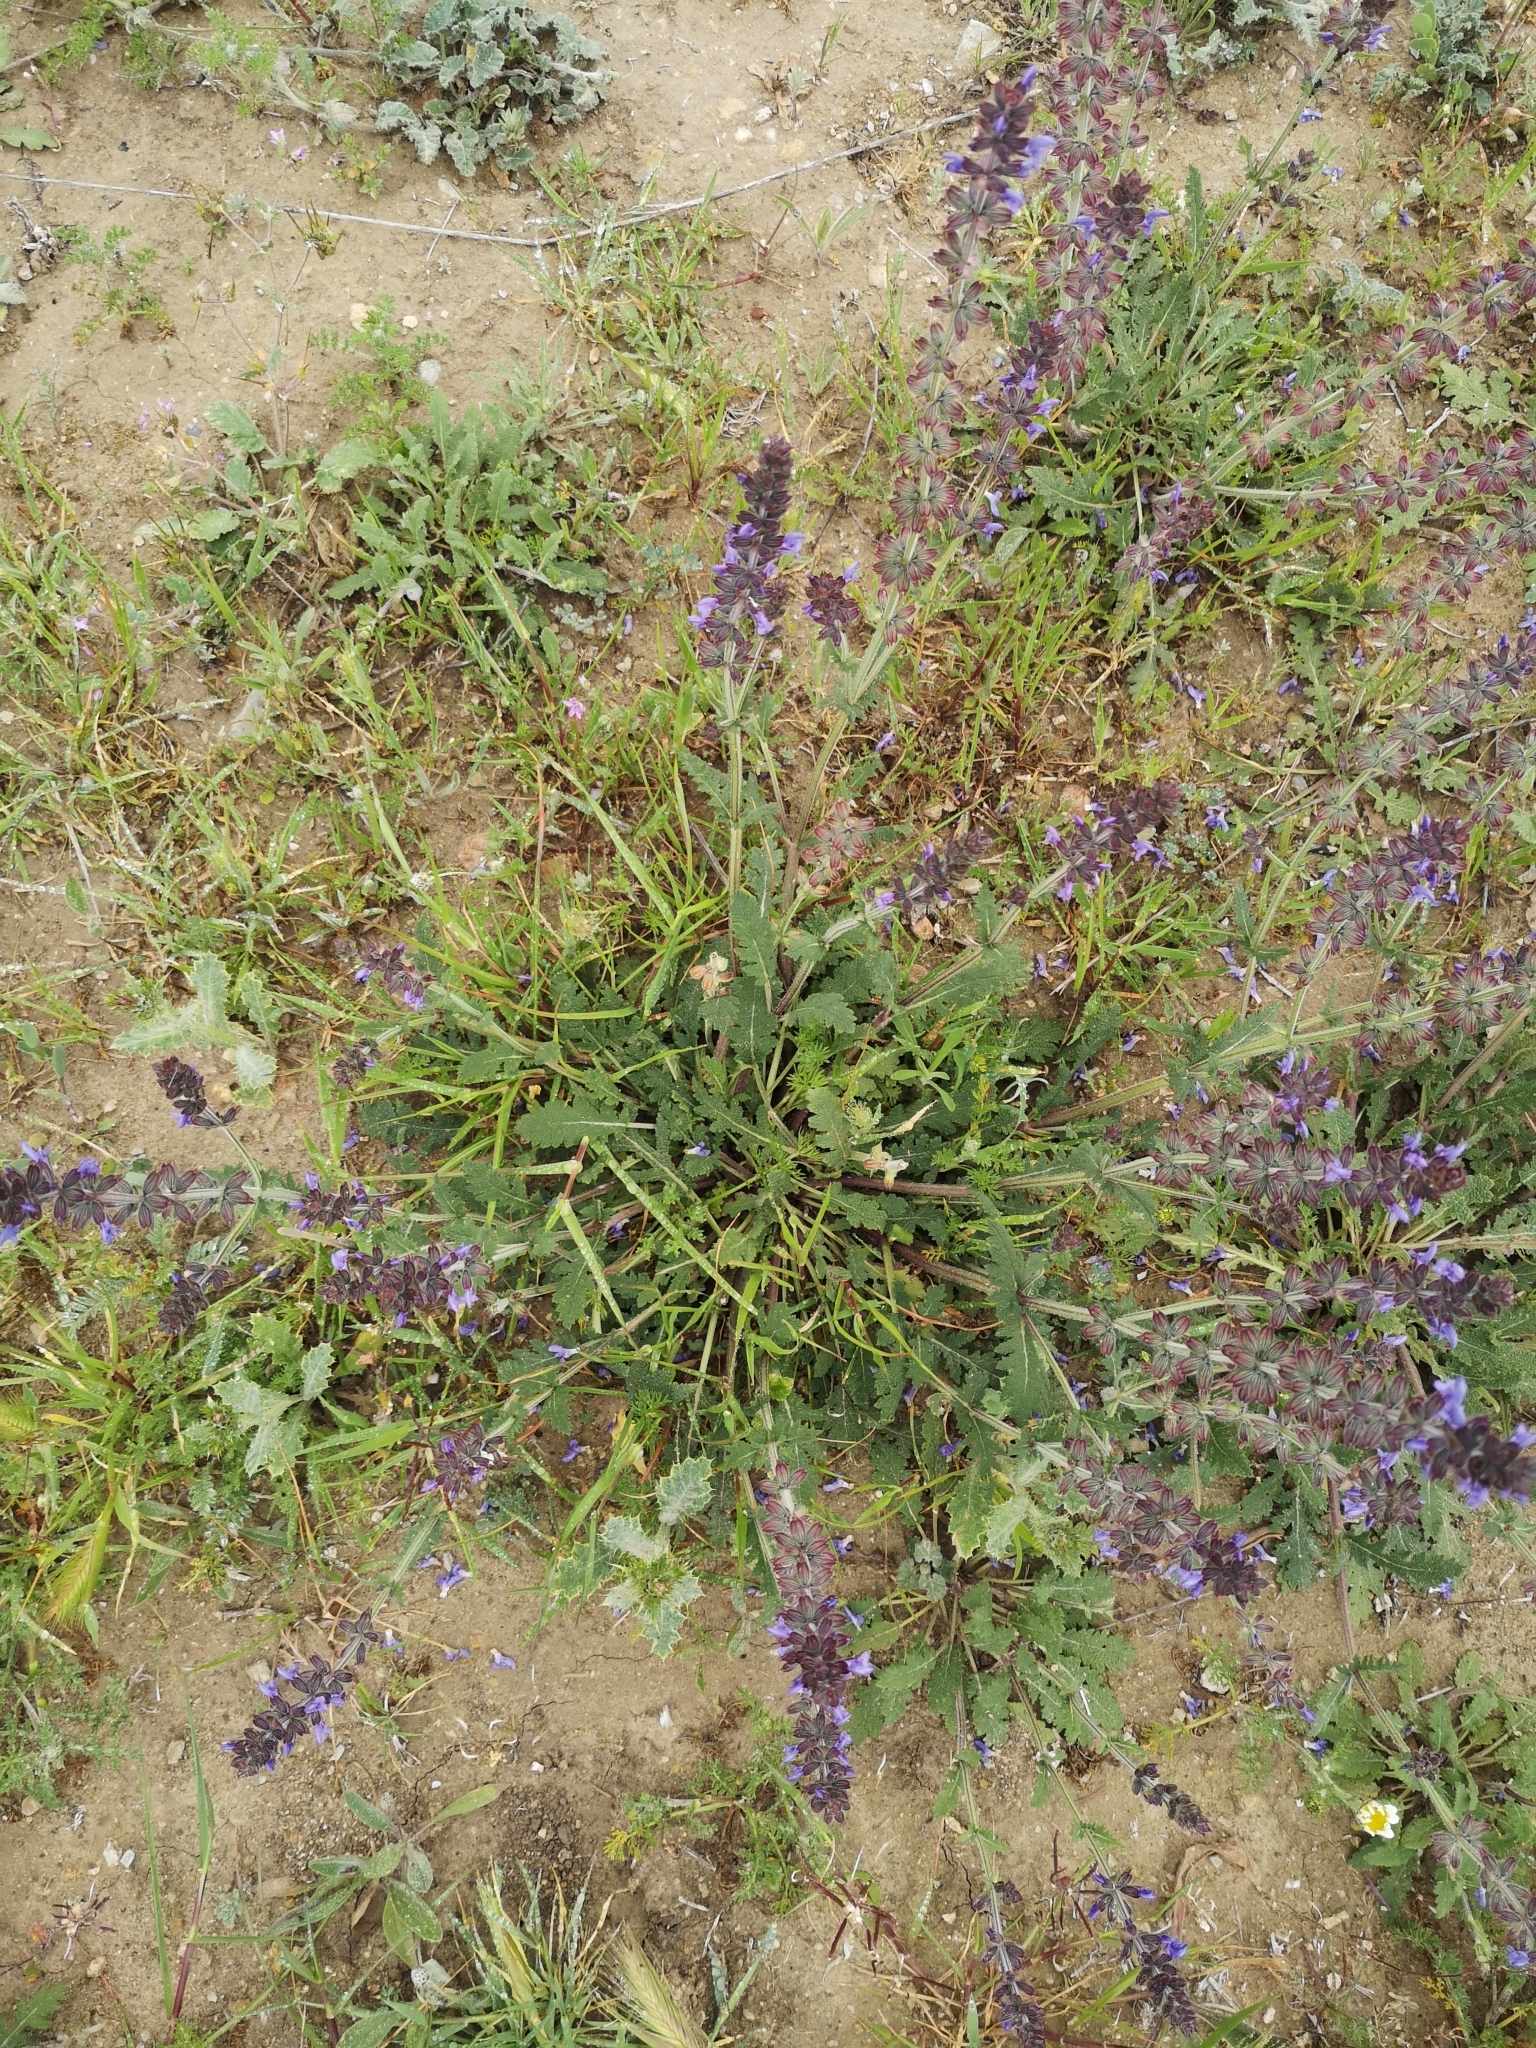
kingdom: Plantae
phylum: Tracheophyta
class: Magnoliopsida
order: Lamiales
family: Lamiaceae
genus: Salvia
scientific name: Salvia verbenaca
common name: Wild clary
